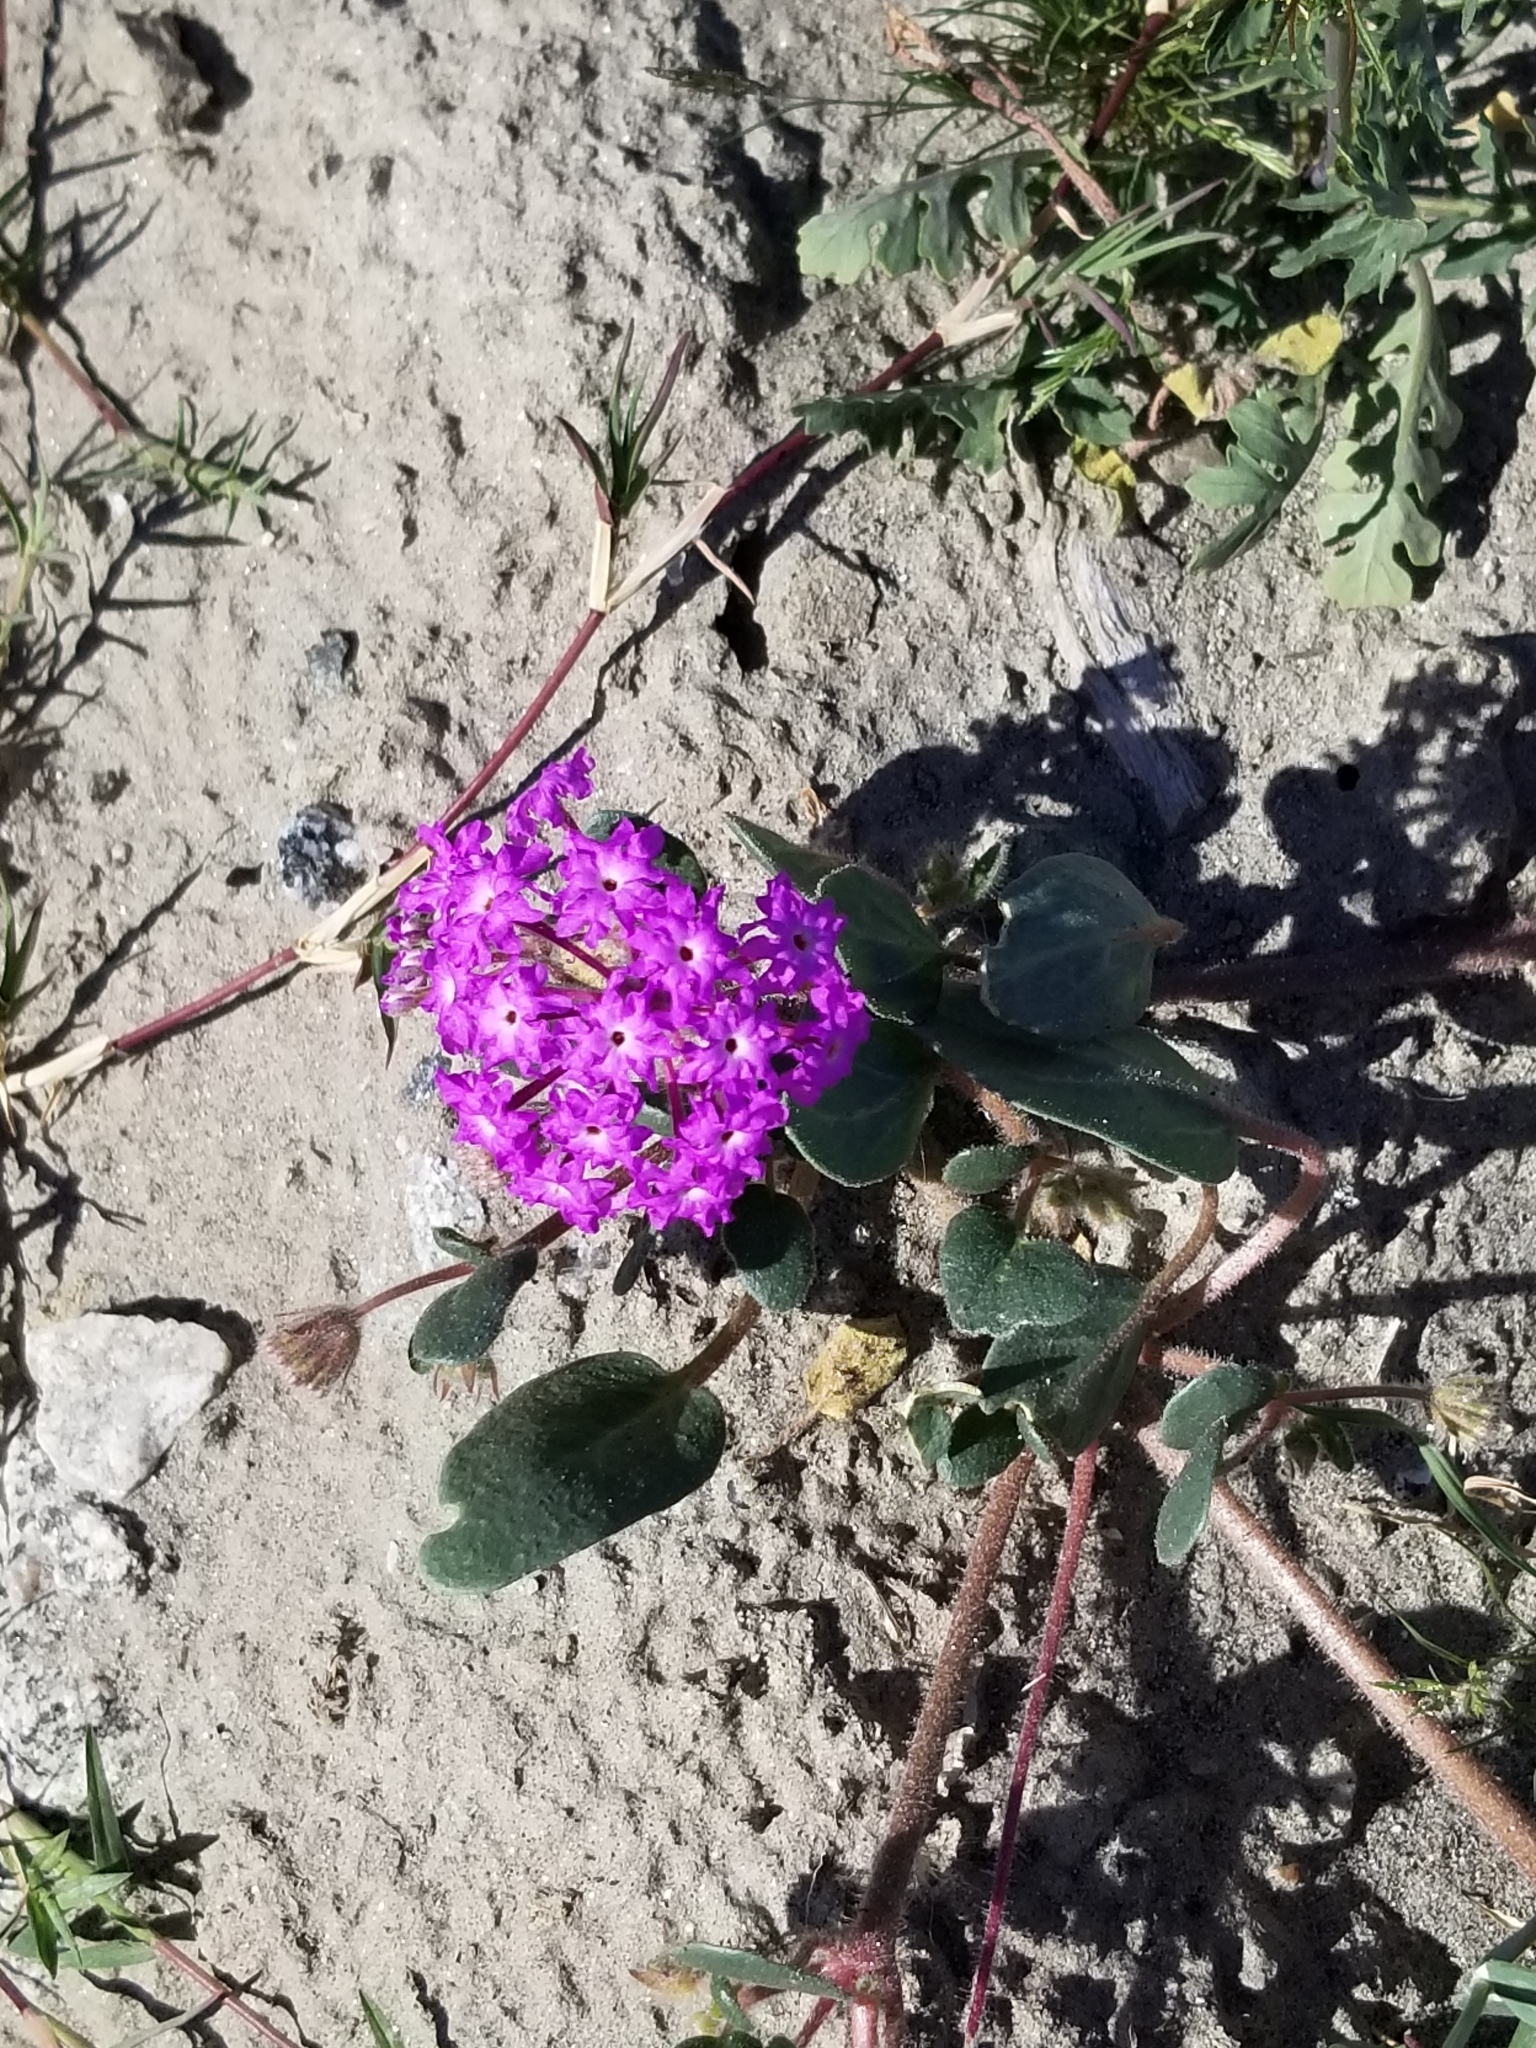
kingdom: Plantae
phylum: Tracheophyta
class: Magnoliopsida
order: Caryophyllales
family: Nyctaginaceae
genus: Abronia
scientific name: Abronia villosa
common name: Desert sand-verbena
